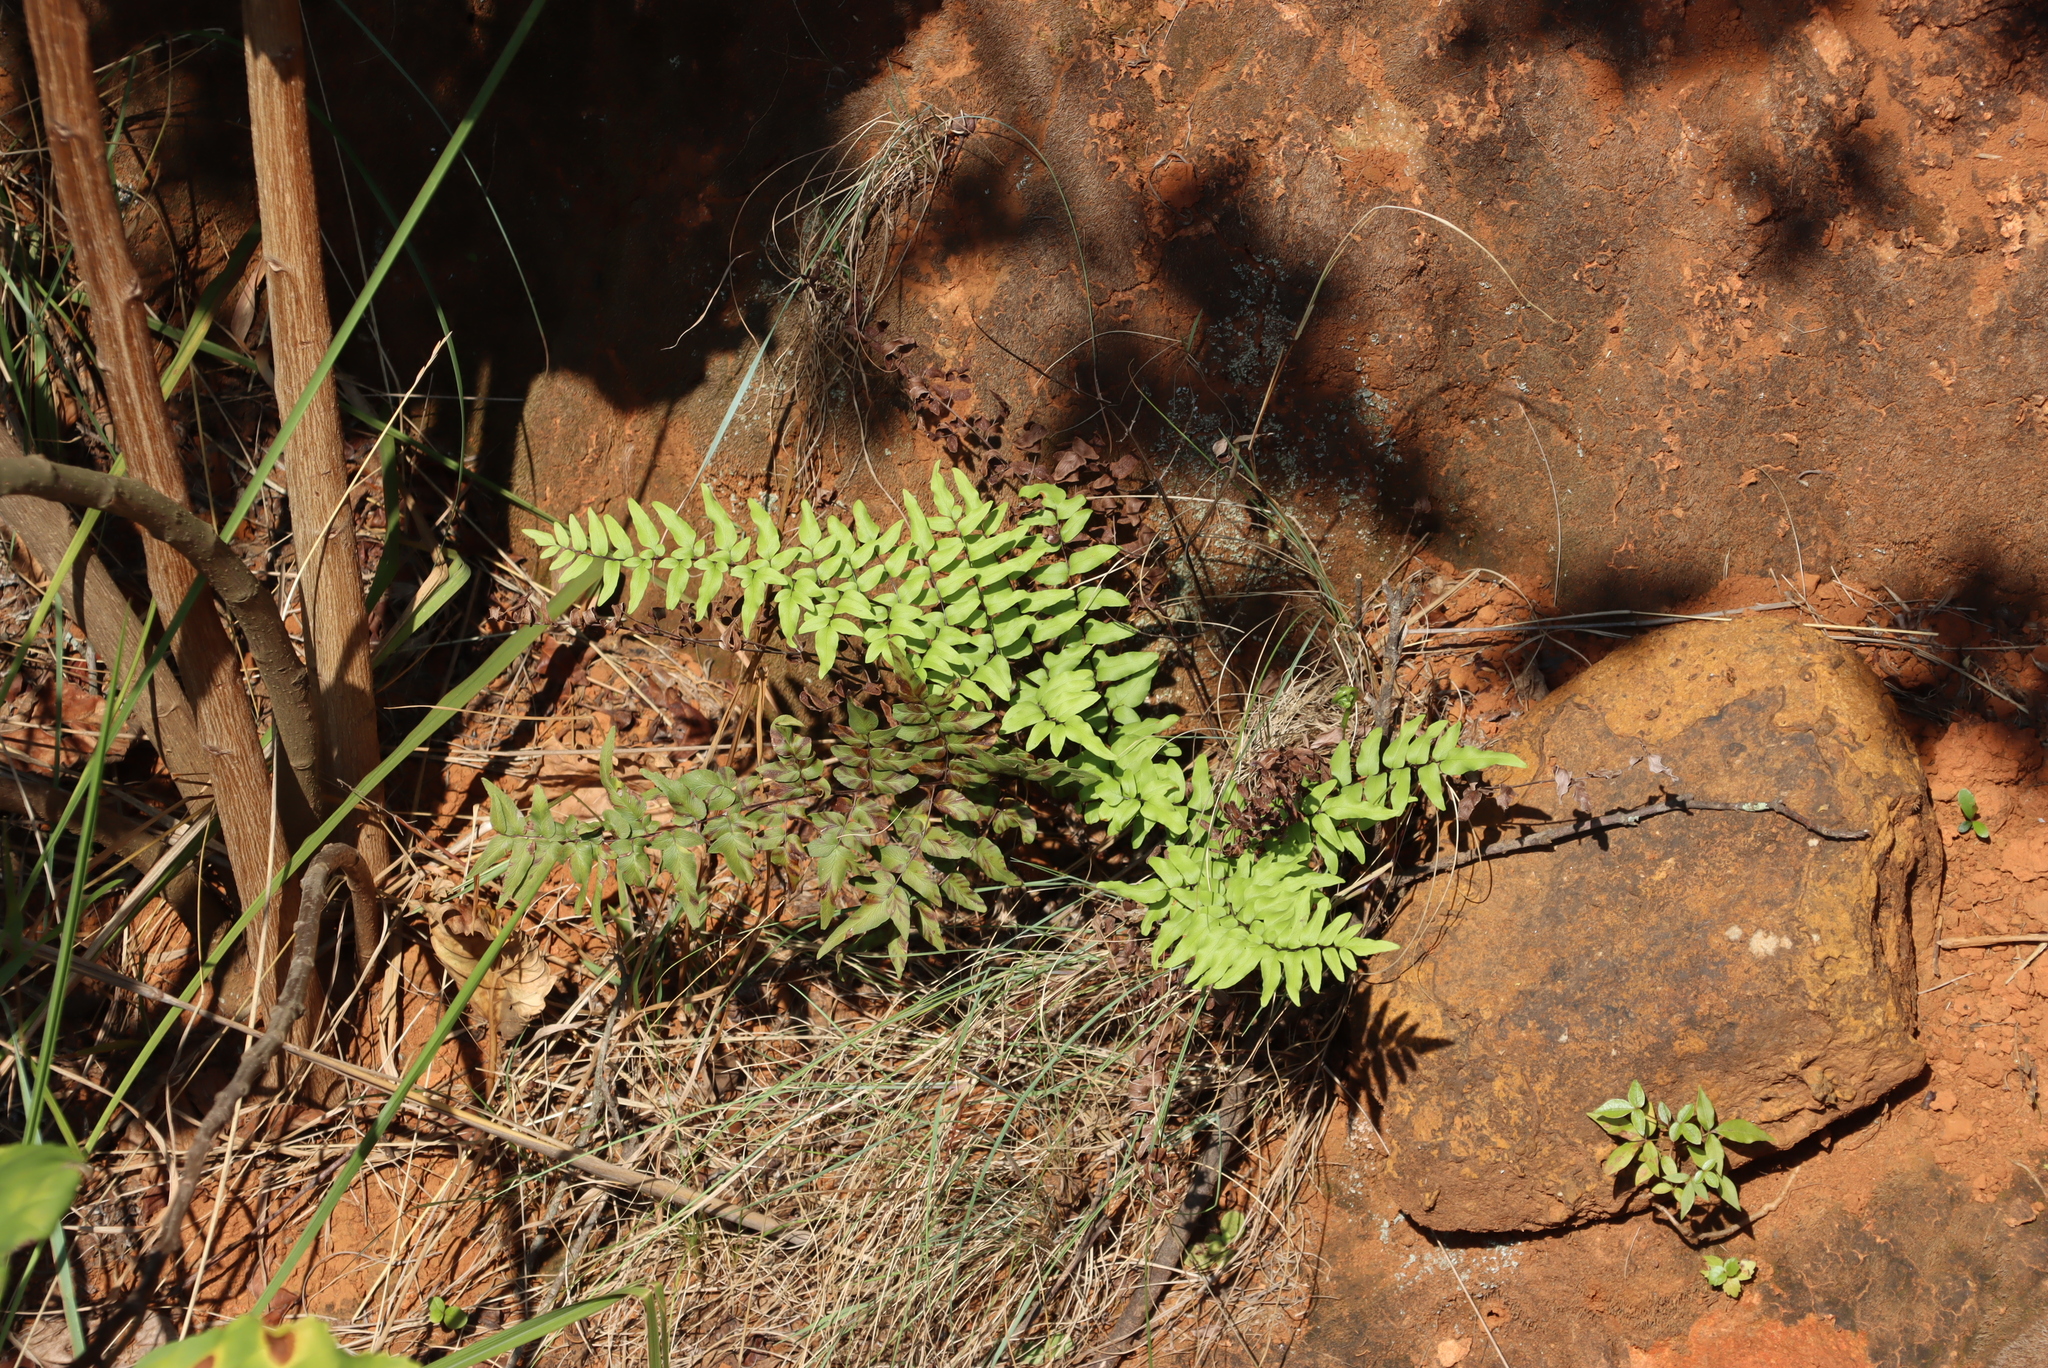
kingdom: Plantae
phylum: Tracheophyta
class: Polypodiopsida
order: Polypodiales
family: Pteridaceae
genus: Cheilanthes
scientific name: Cheilanthes viridis
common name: Green cliffbrake
